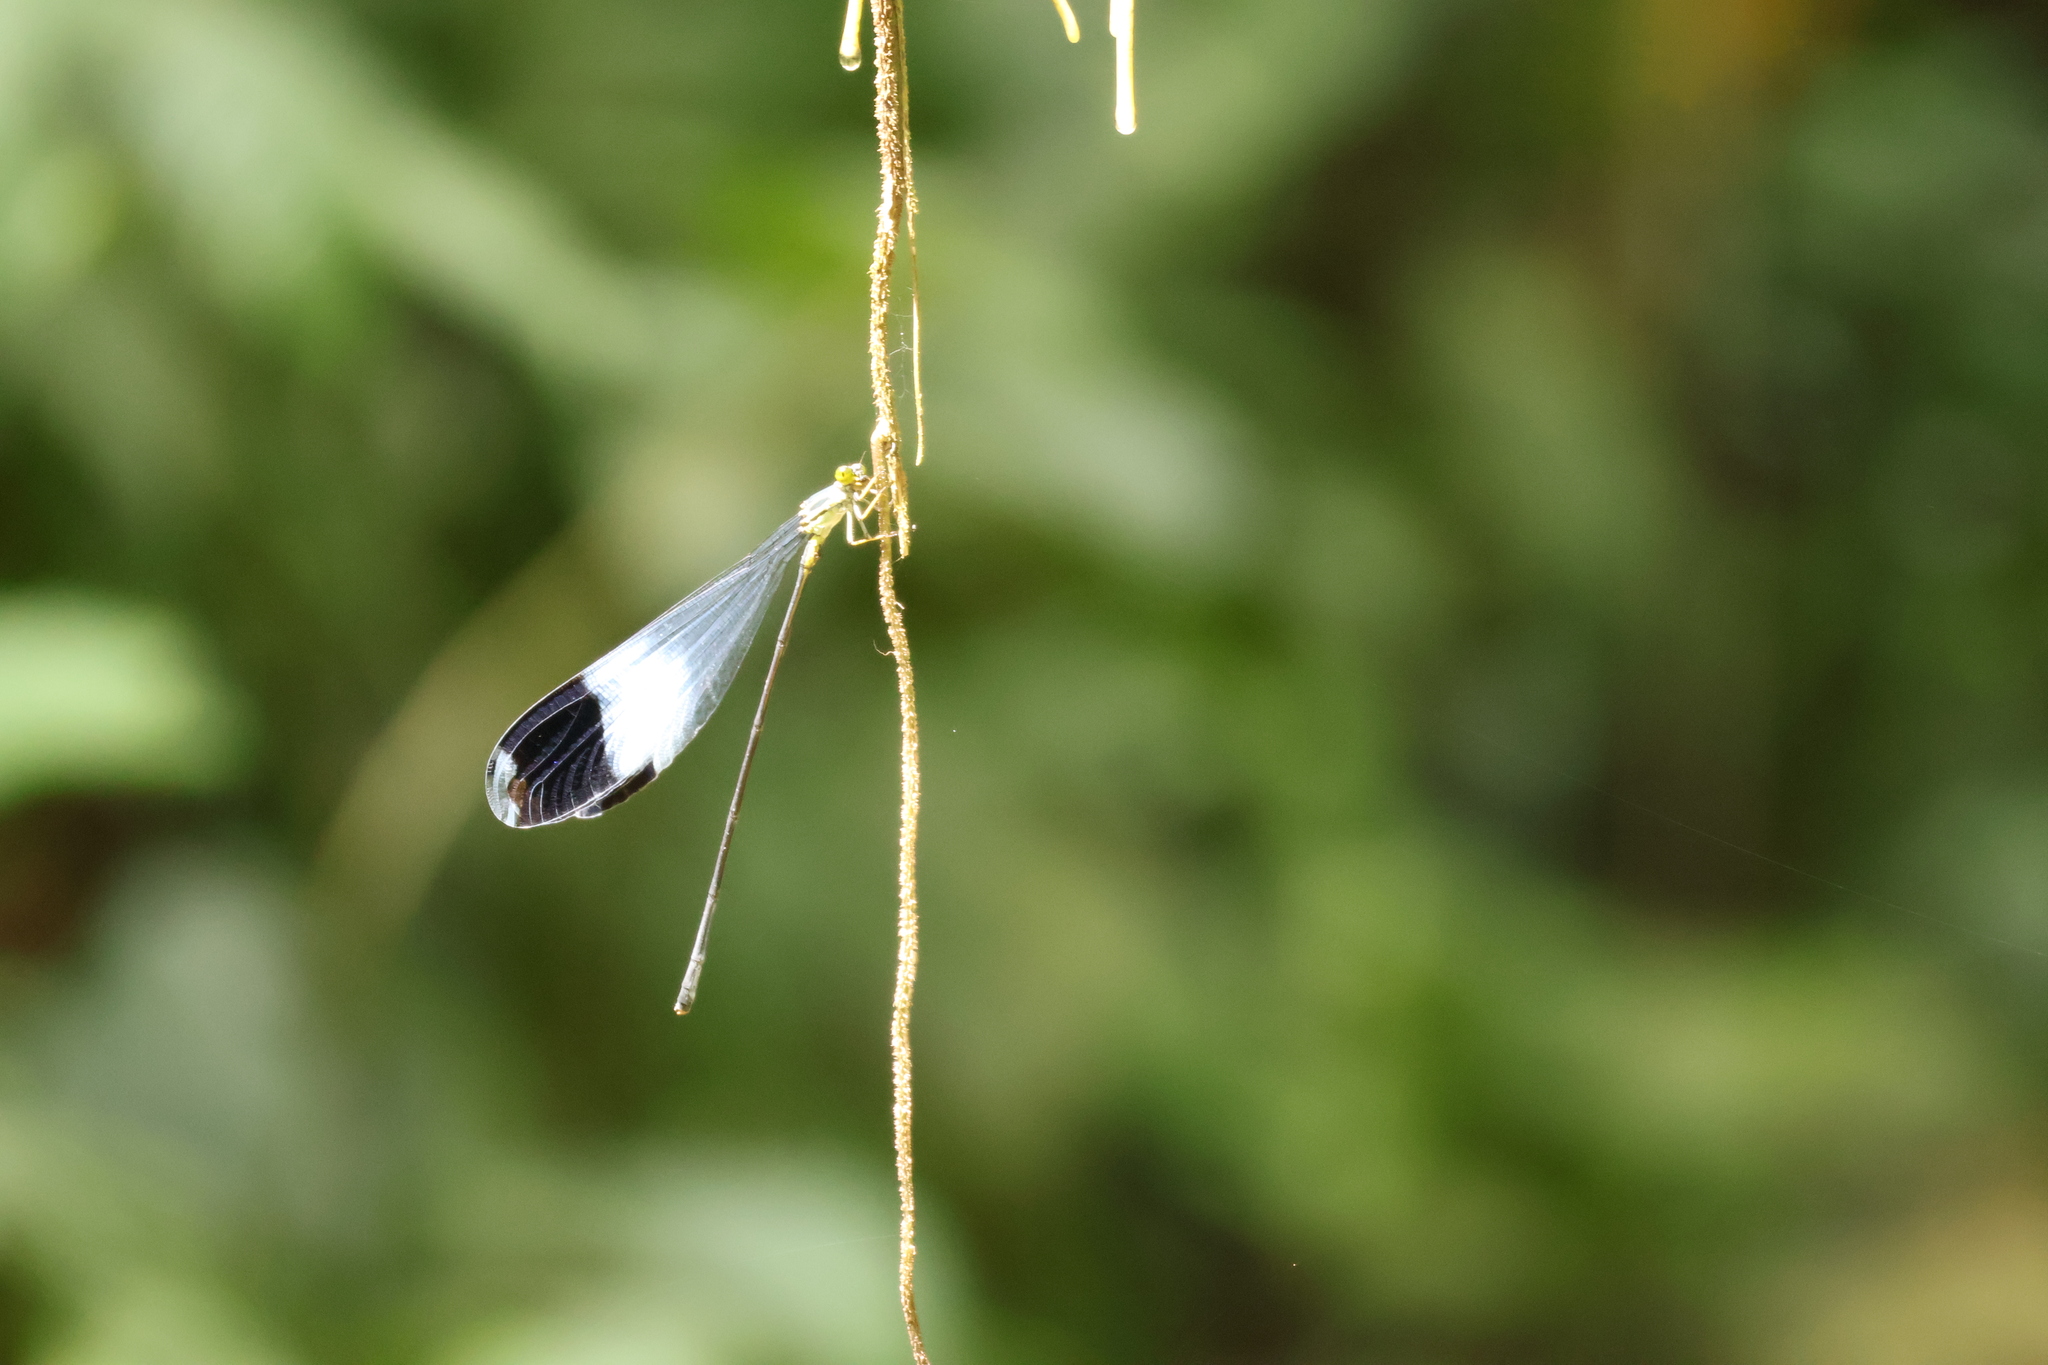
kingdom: Animalia
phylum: Arthropoda
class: Insecta
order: Odonata
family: Coenagrionidae
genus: Megaloprepus
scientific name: Megaloprepus caerulatus
